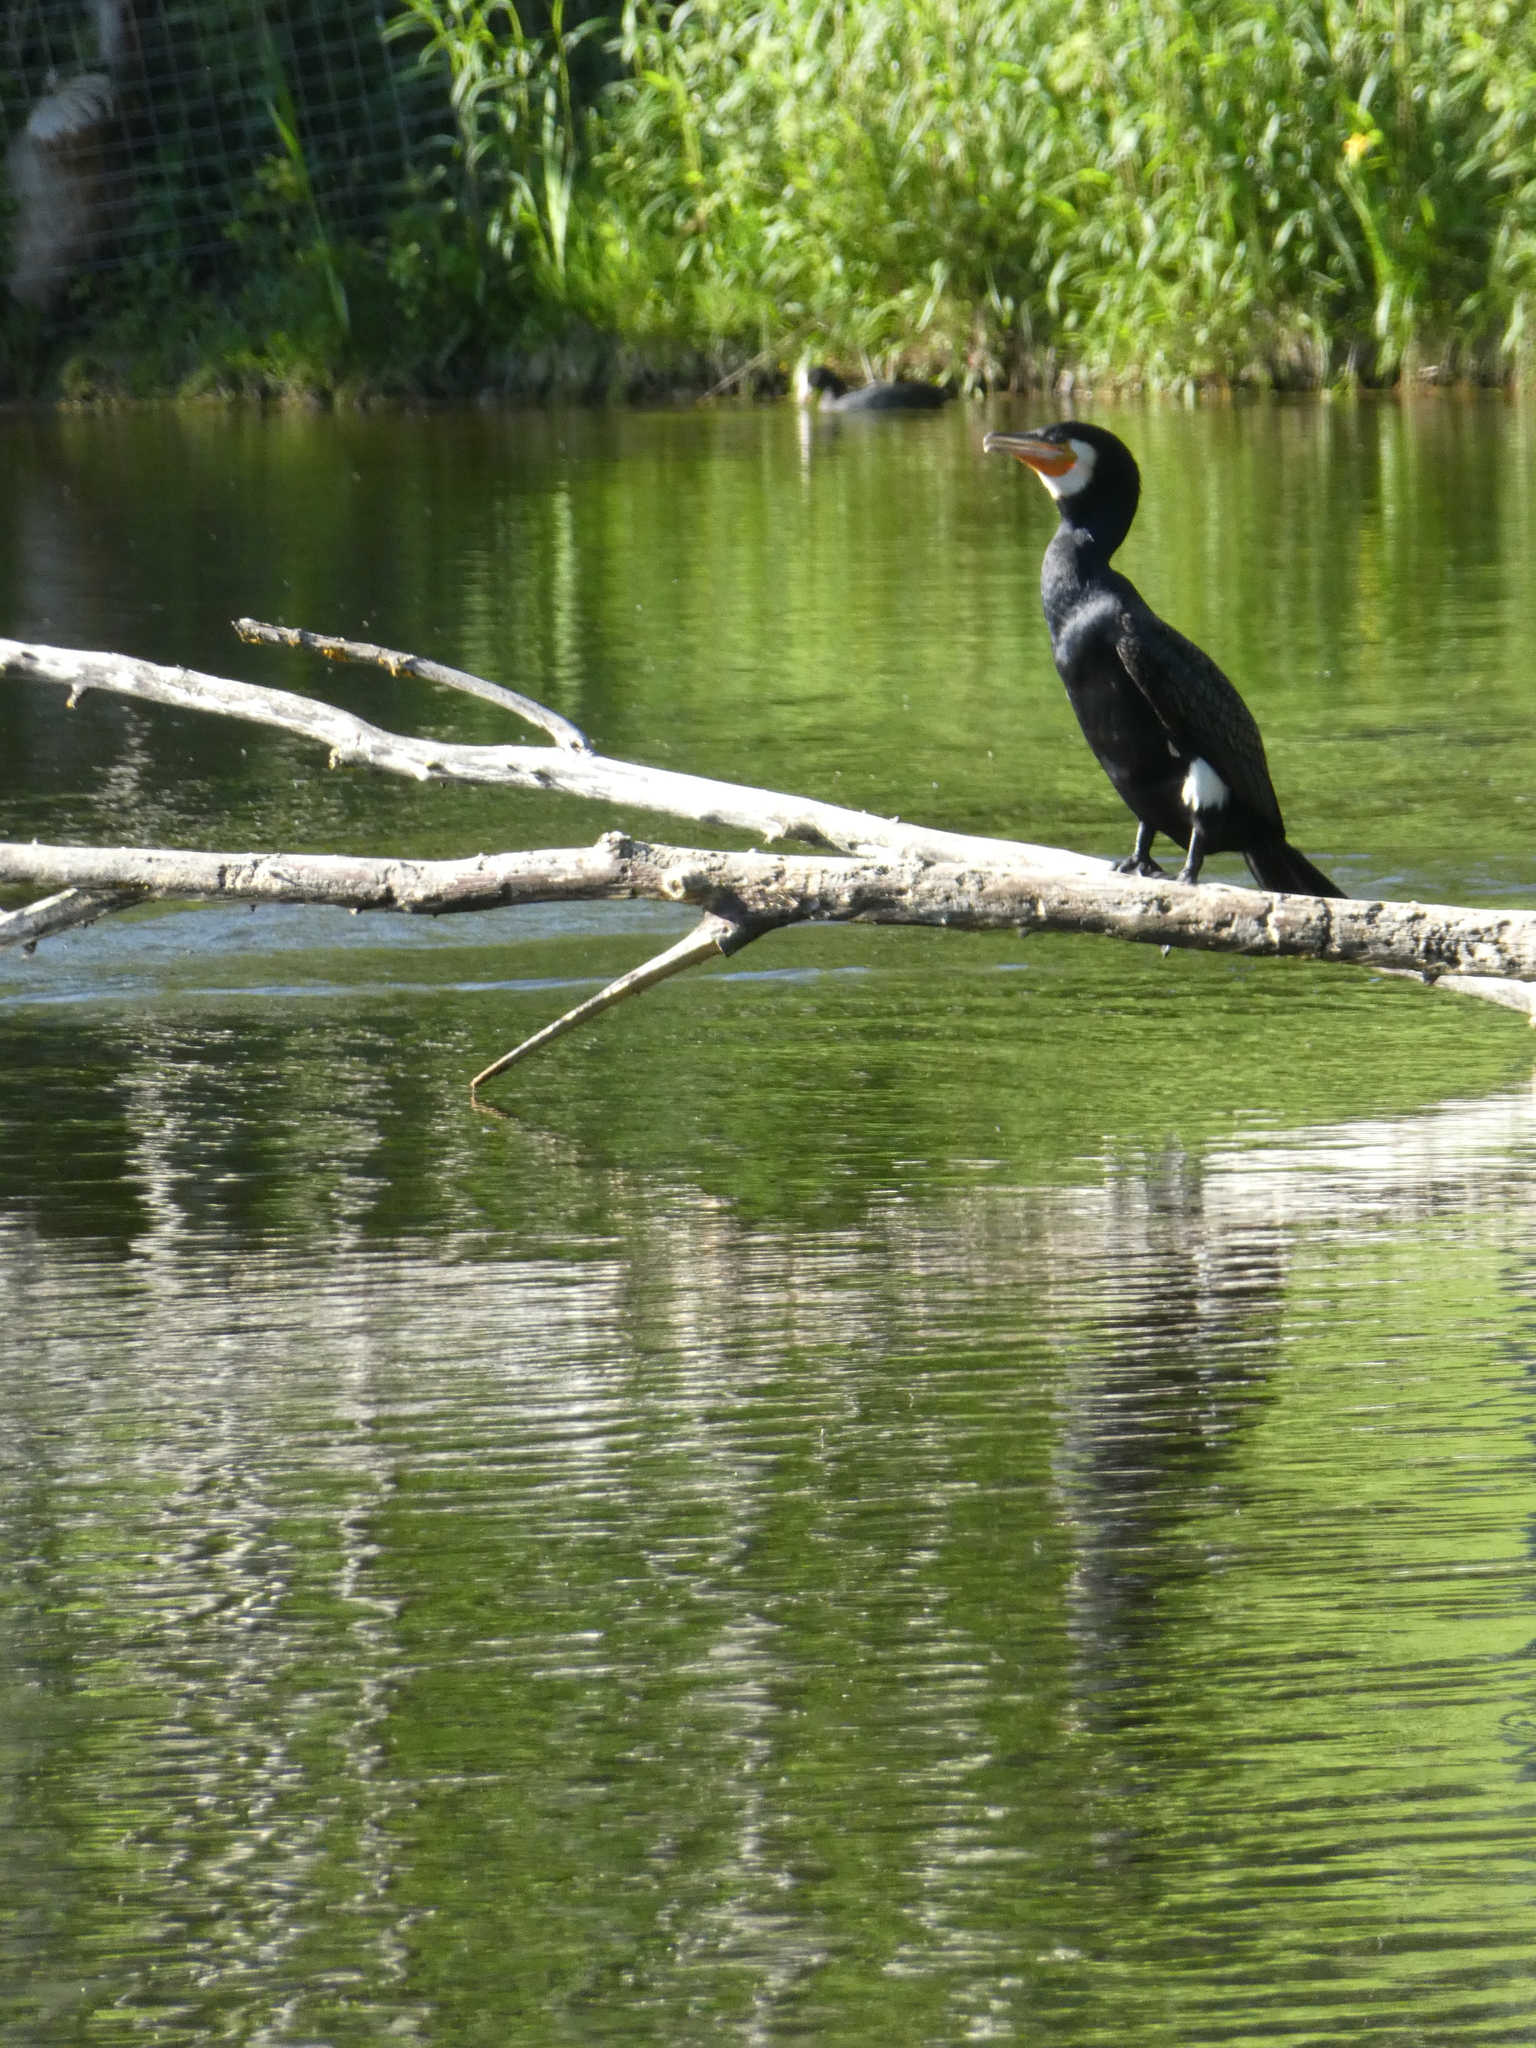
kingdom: Animalia
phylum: Chordata
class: Aves
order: Suliformes
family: Phalacrocoracidae
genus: Phalacrocorax
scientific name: Phalacrocorax carbo
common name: Great cormorant
